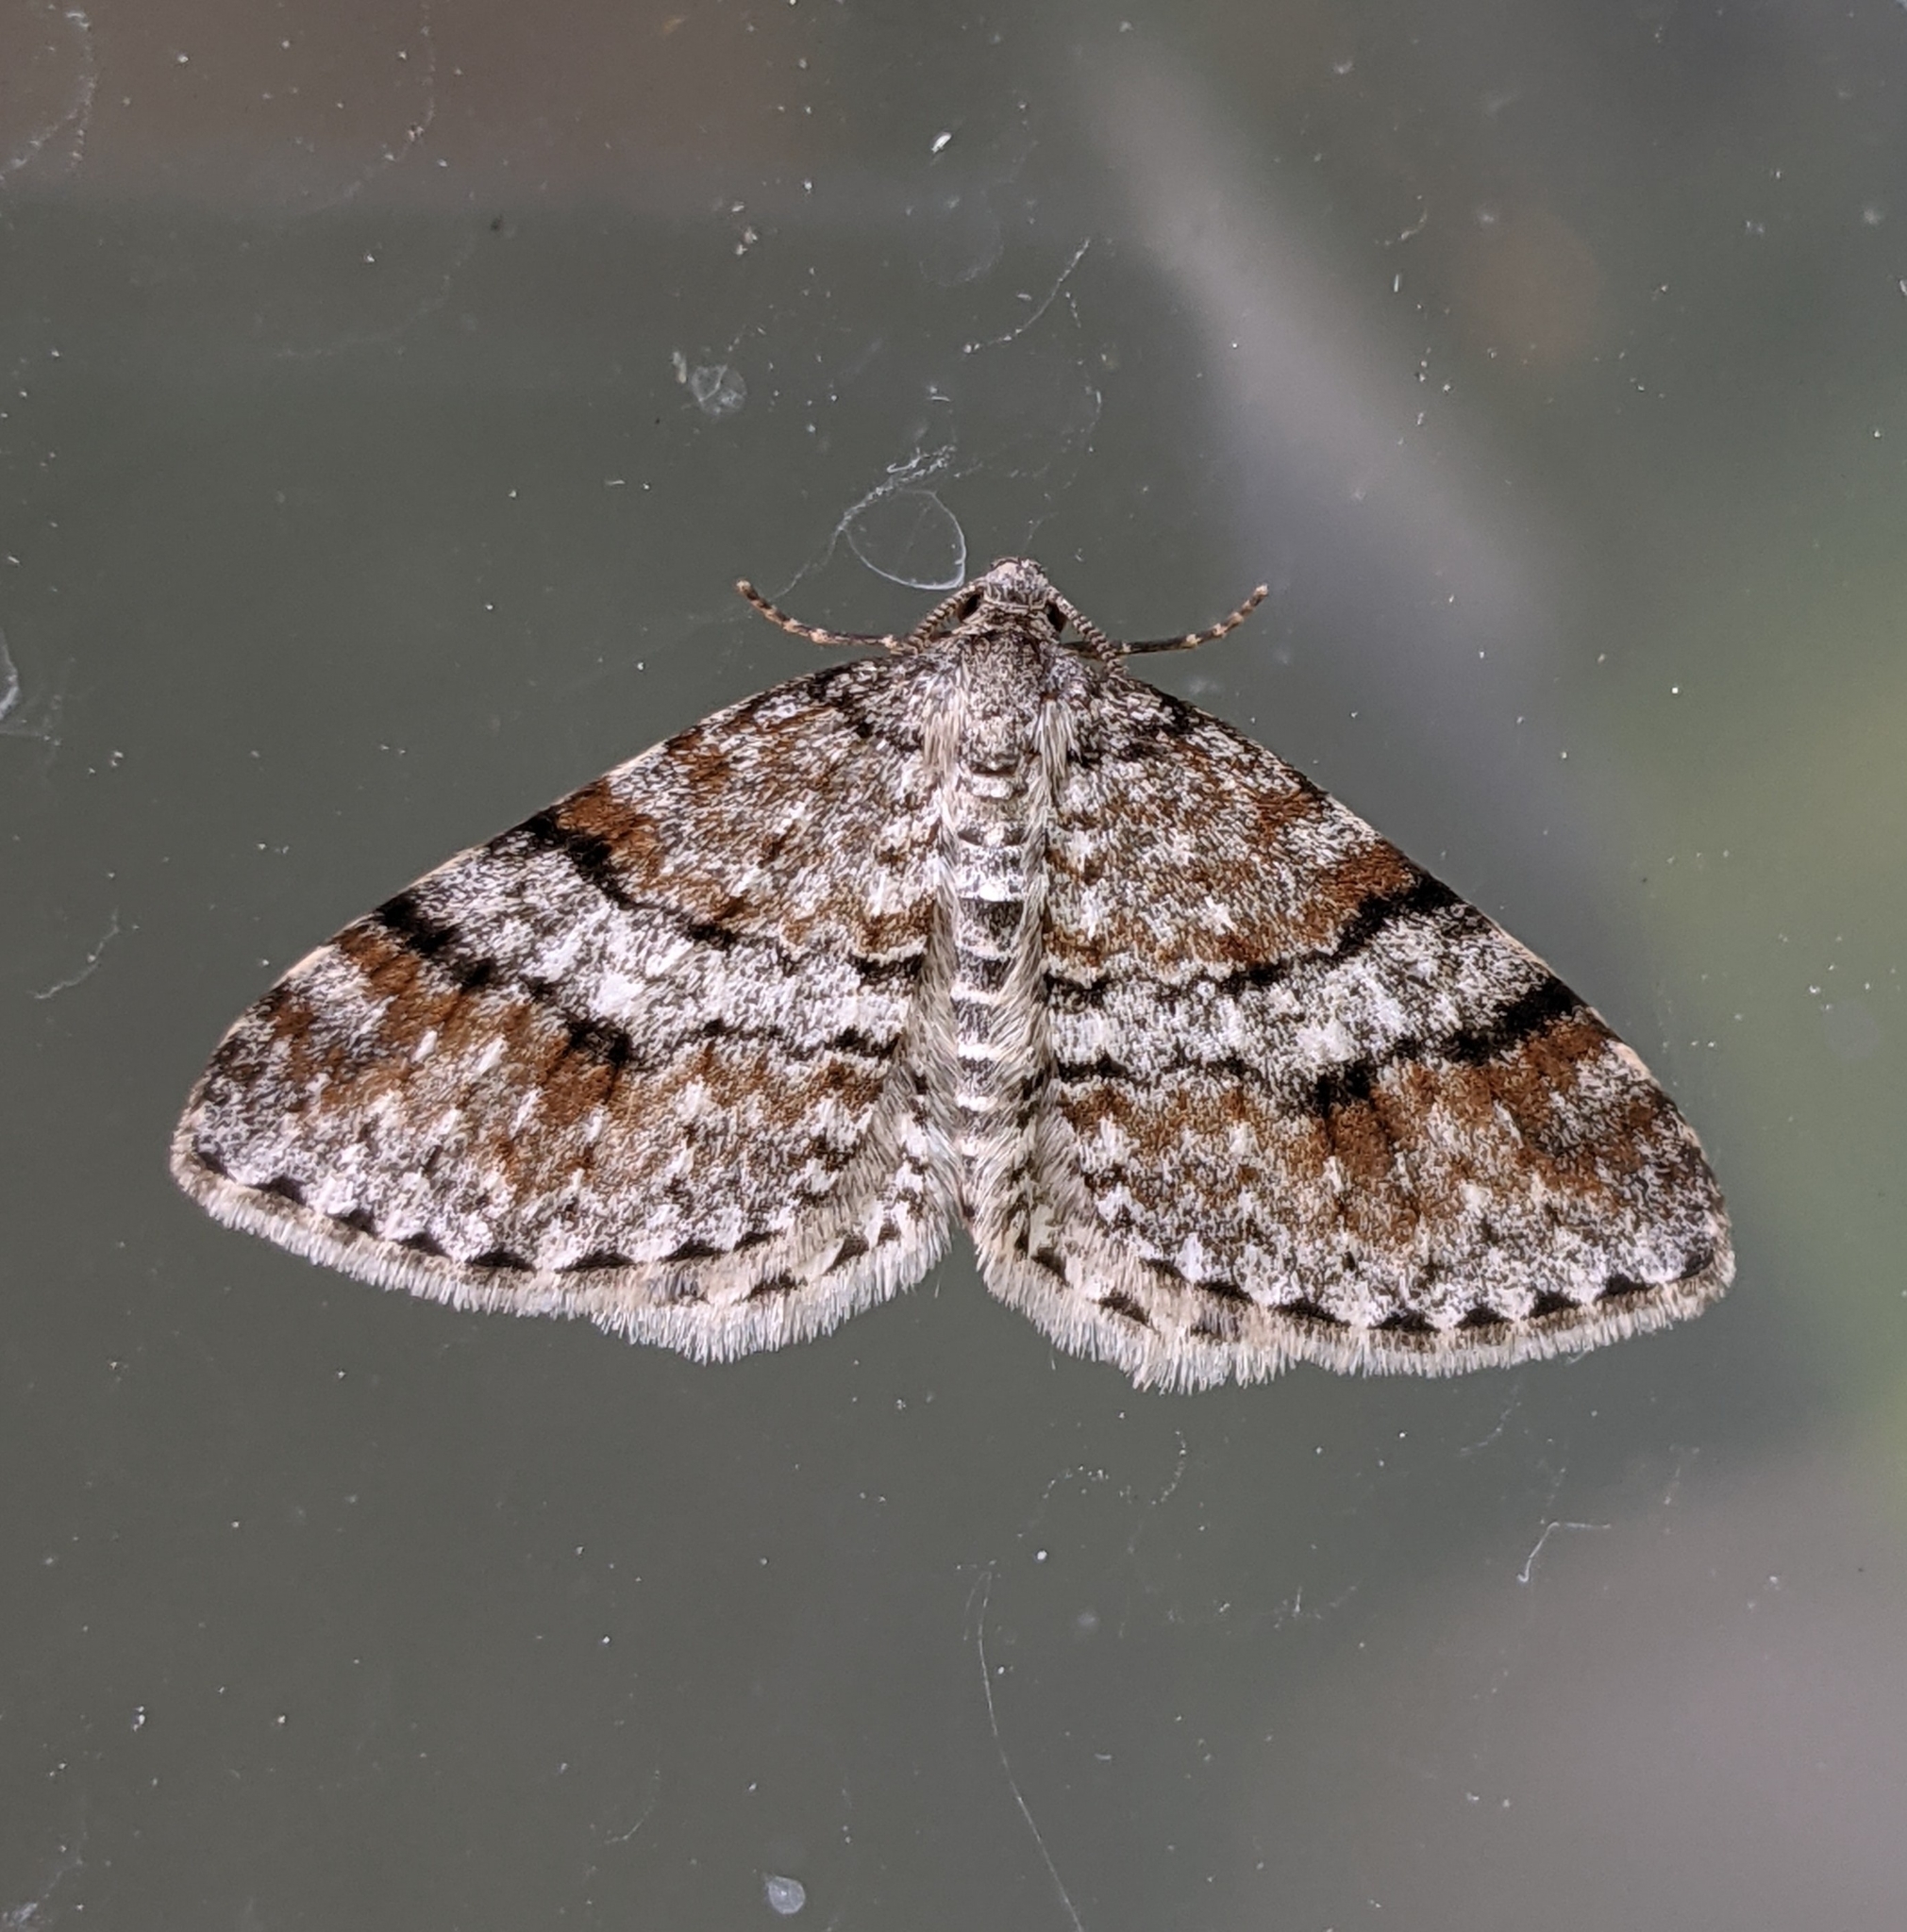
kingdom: Animalia
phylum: Arthropoda
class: Insecta
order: Lepidoptera
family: Geometridae
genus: Venusia
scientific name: Venusia cambrica
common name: Welsh wave
